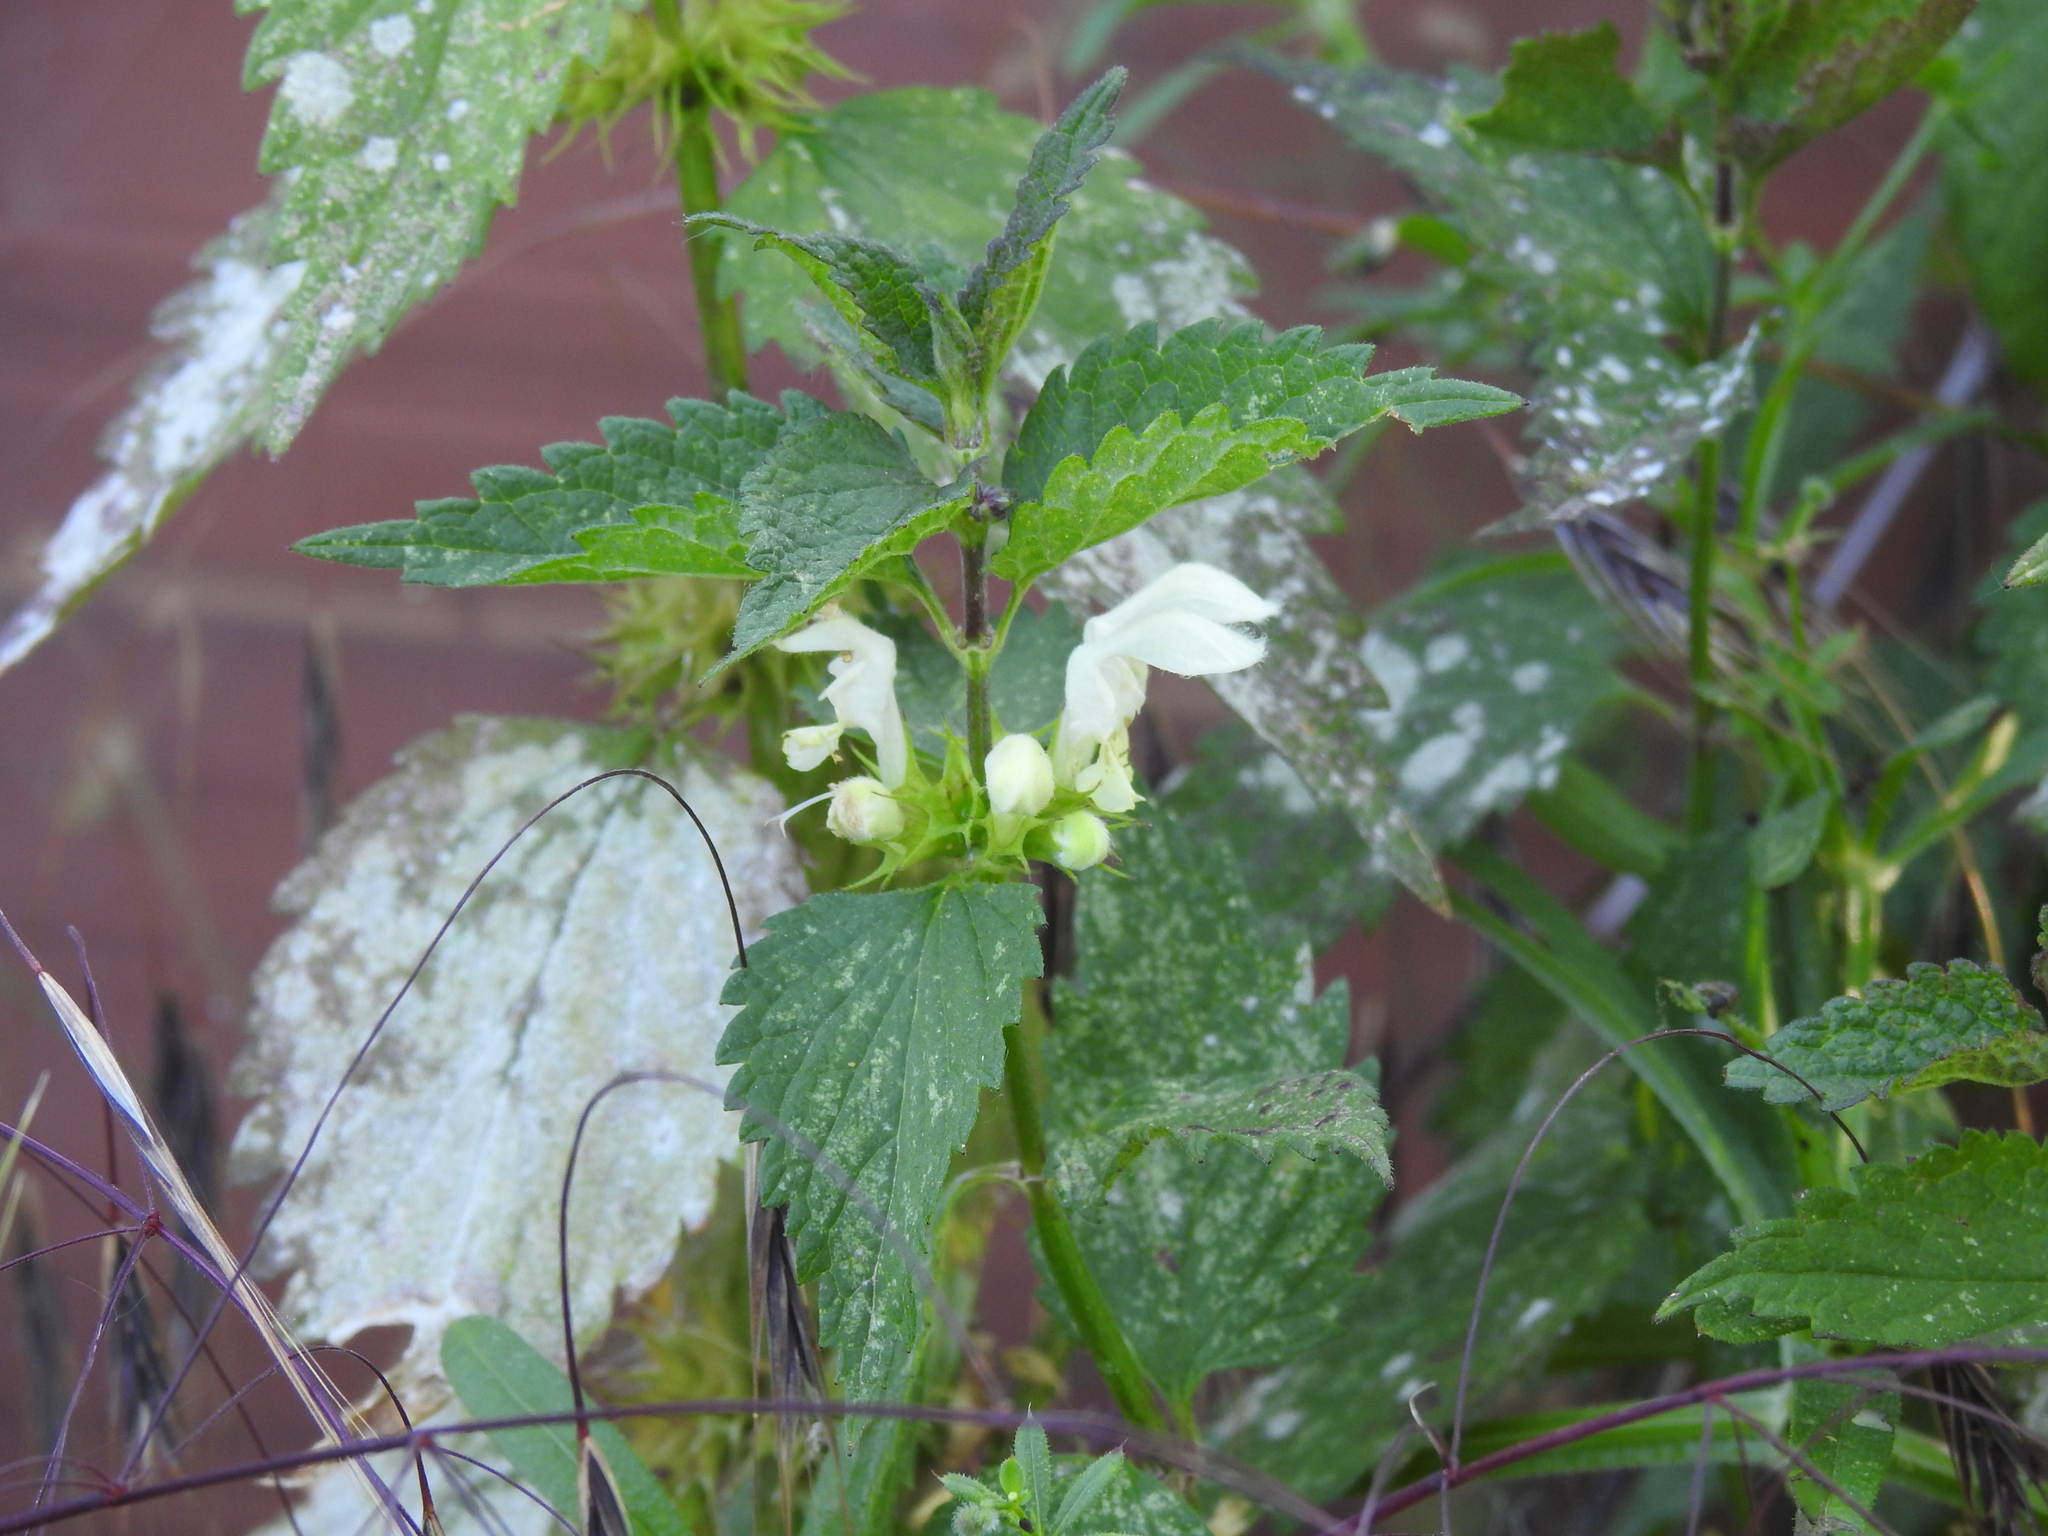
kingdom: Plantae
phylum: Tracheophyta
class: Magnoliopsida
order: Lamiales
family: Lamiaceae
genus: Lamium
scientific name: Lamium album
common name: White dead-nettle
